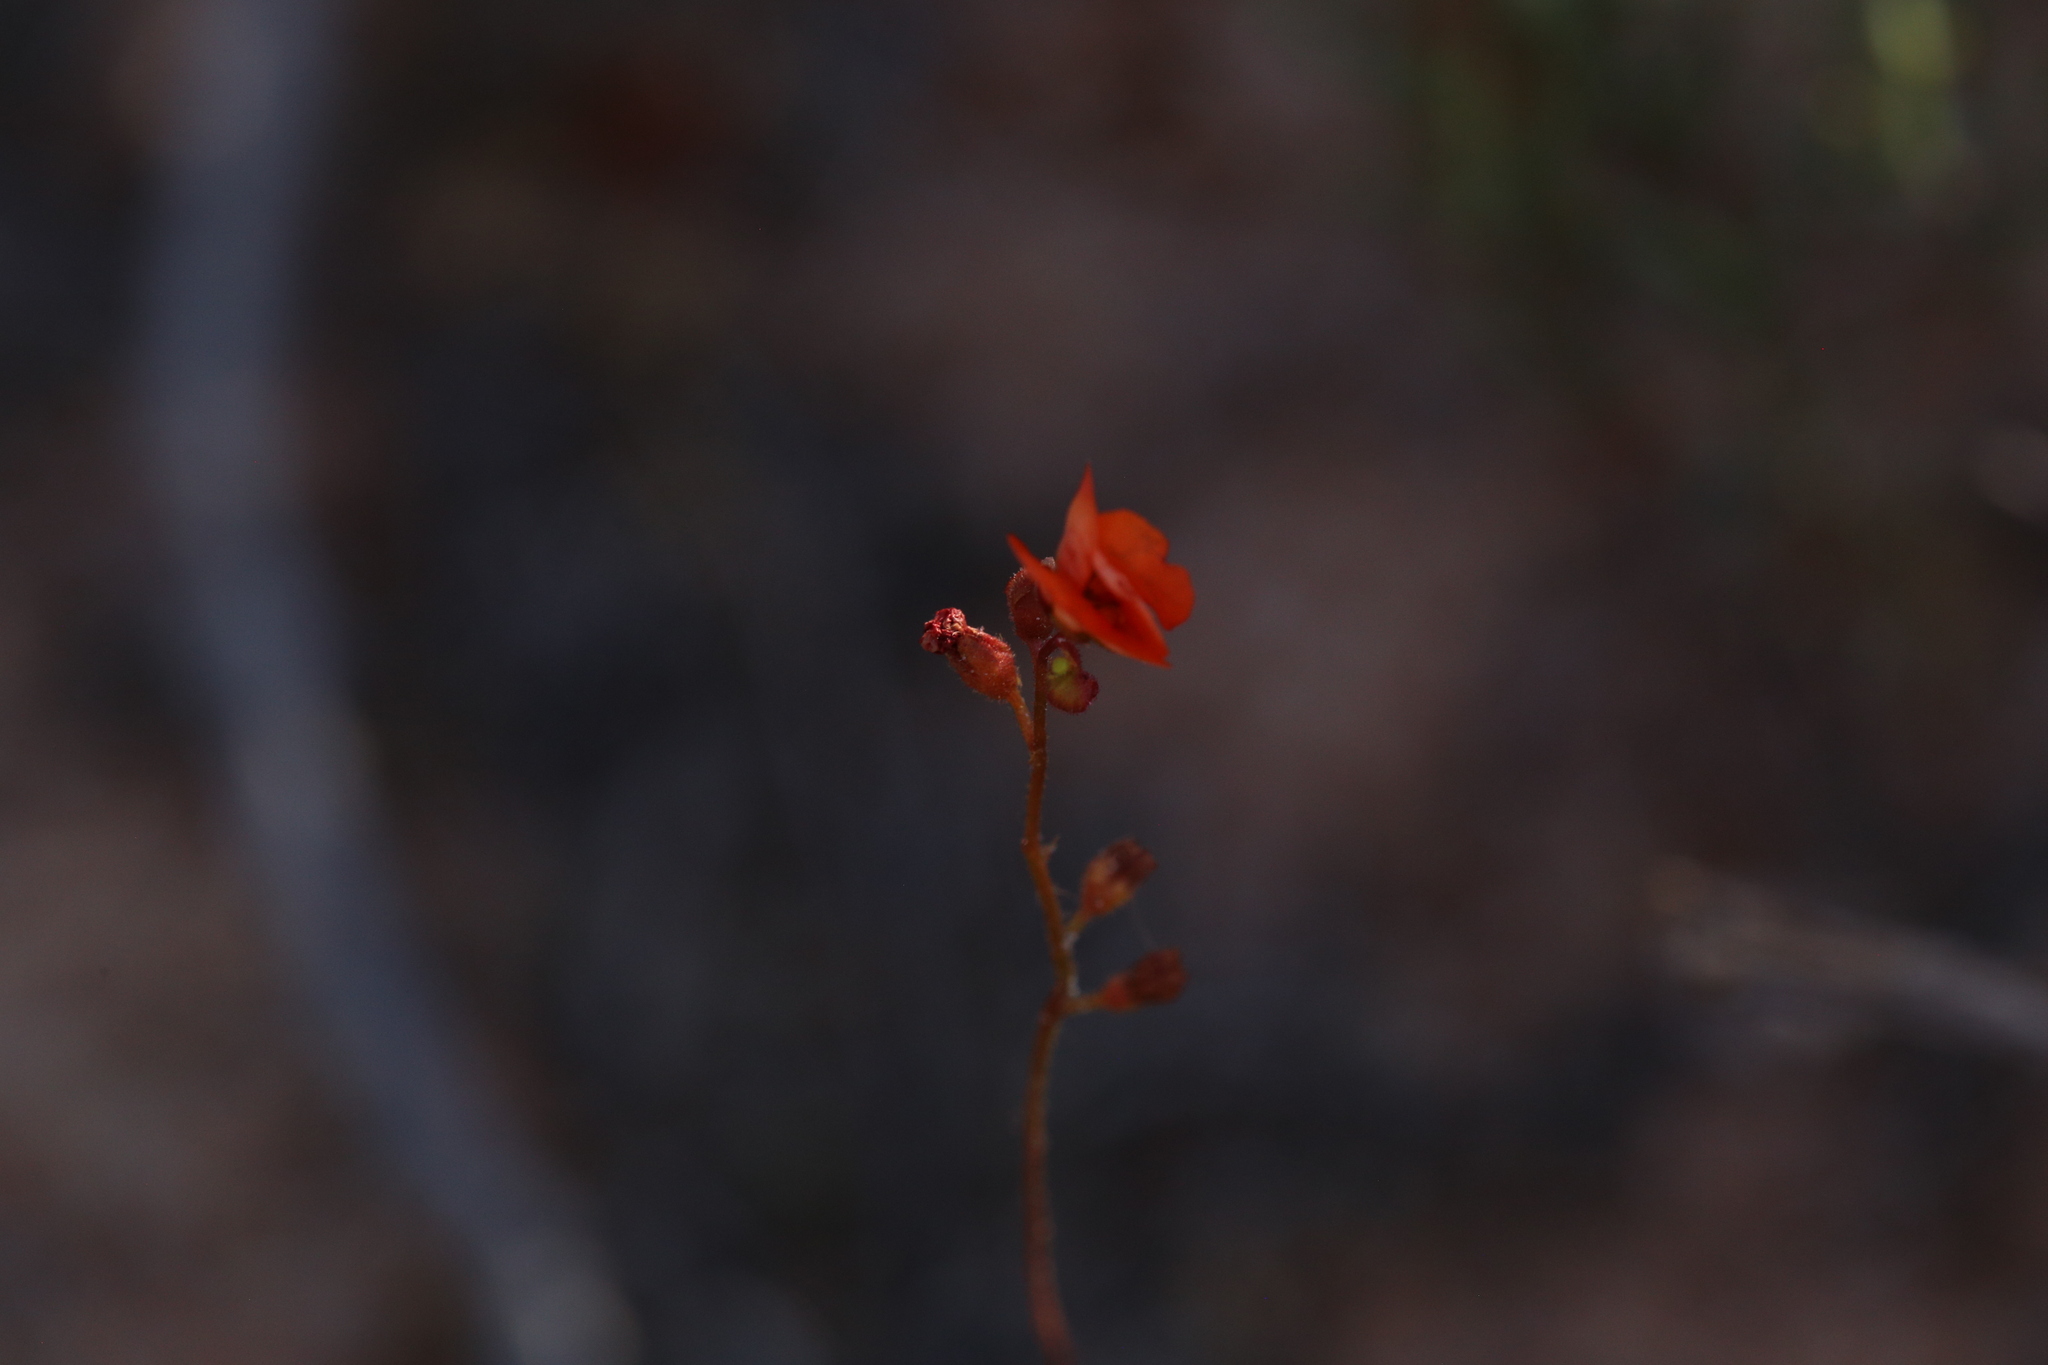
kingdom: Plantae
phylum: Tracheophyta
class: Magnoliopsida
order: Caryophyllales
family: Droseraceae
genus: Drosera
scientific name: Drosera echinoblastus
